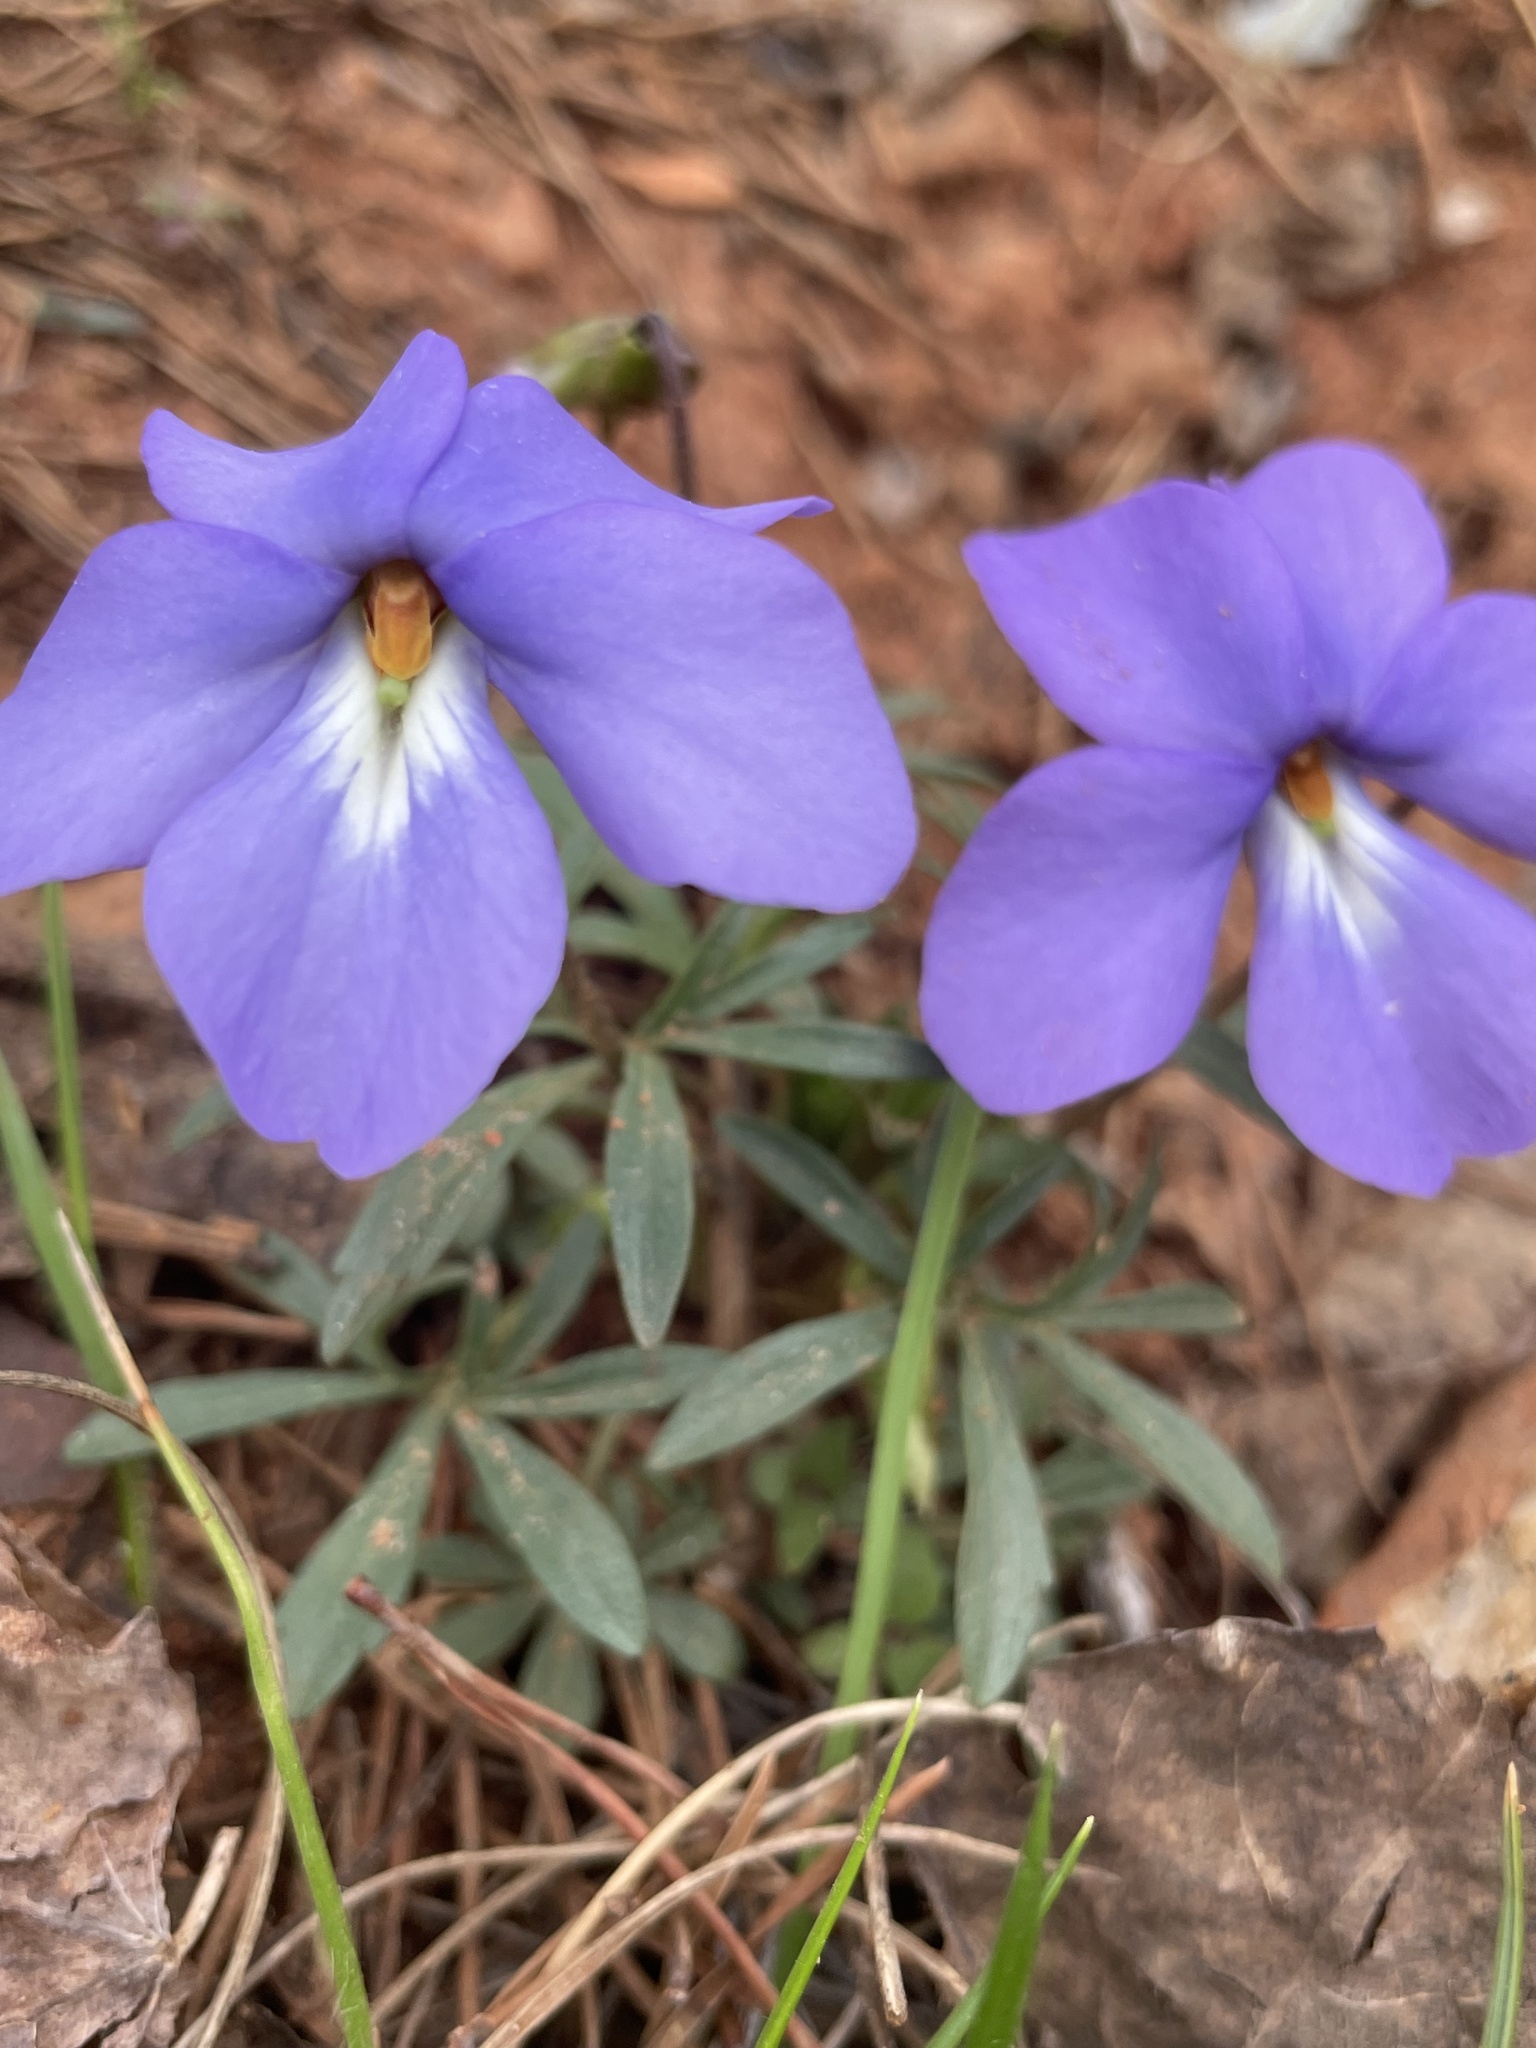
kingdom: Plantae
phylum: Tracheophyta
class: Magnoliopsida
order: Malpighiales
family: Violaceae
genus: Viola
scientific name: Viola pedata
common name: Pansy violet
